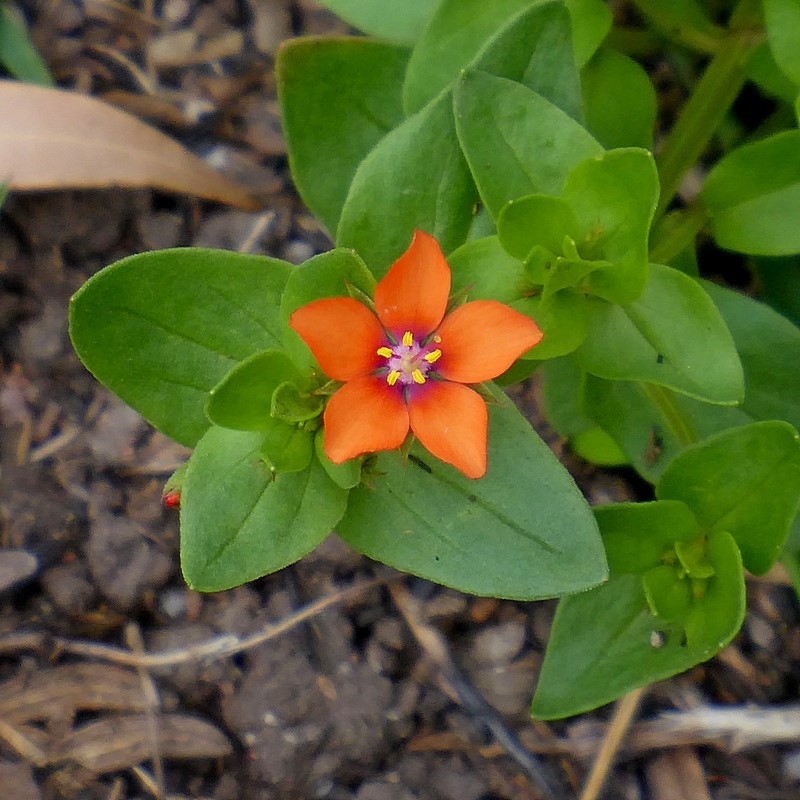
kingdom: Plantae
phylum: Tracheophyta
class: Magnoliopsida
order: Ericales
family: Primulaceae
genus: Lysimachia
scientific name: Lysimachia arvensis
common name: Scarlet pimpernel
